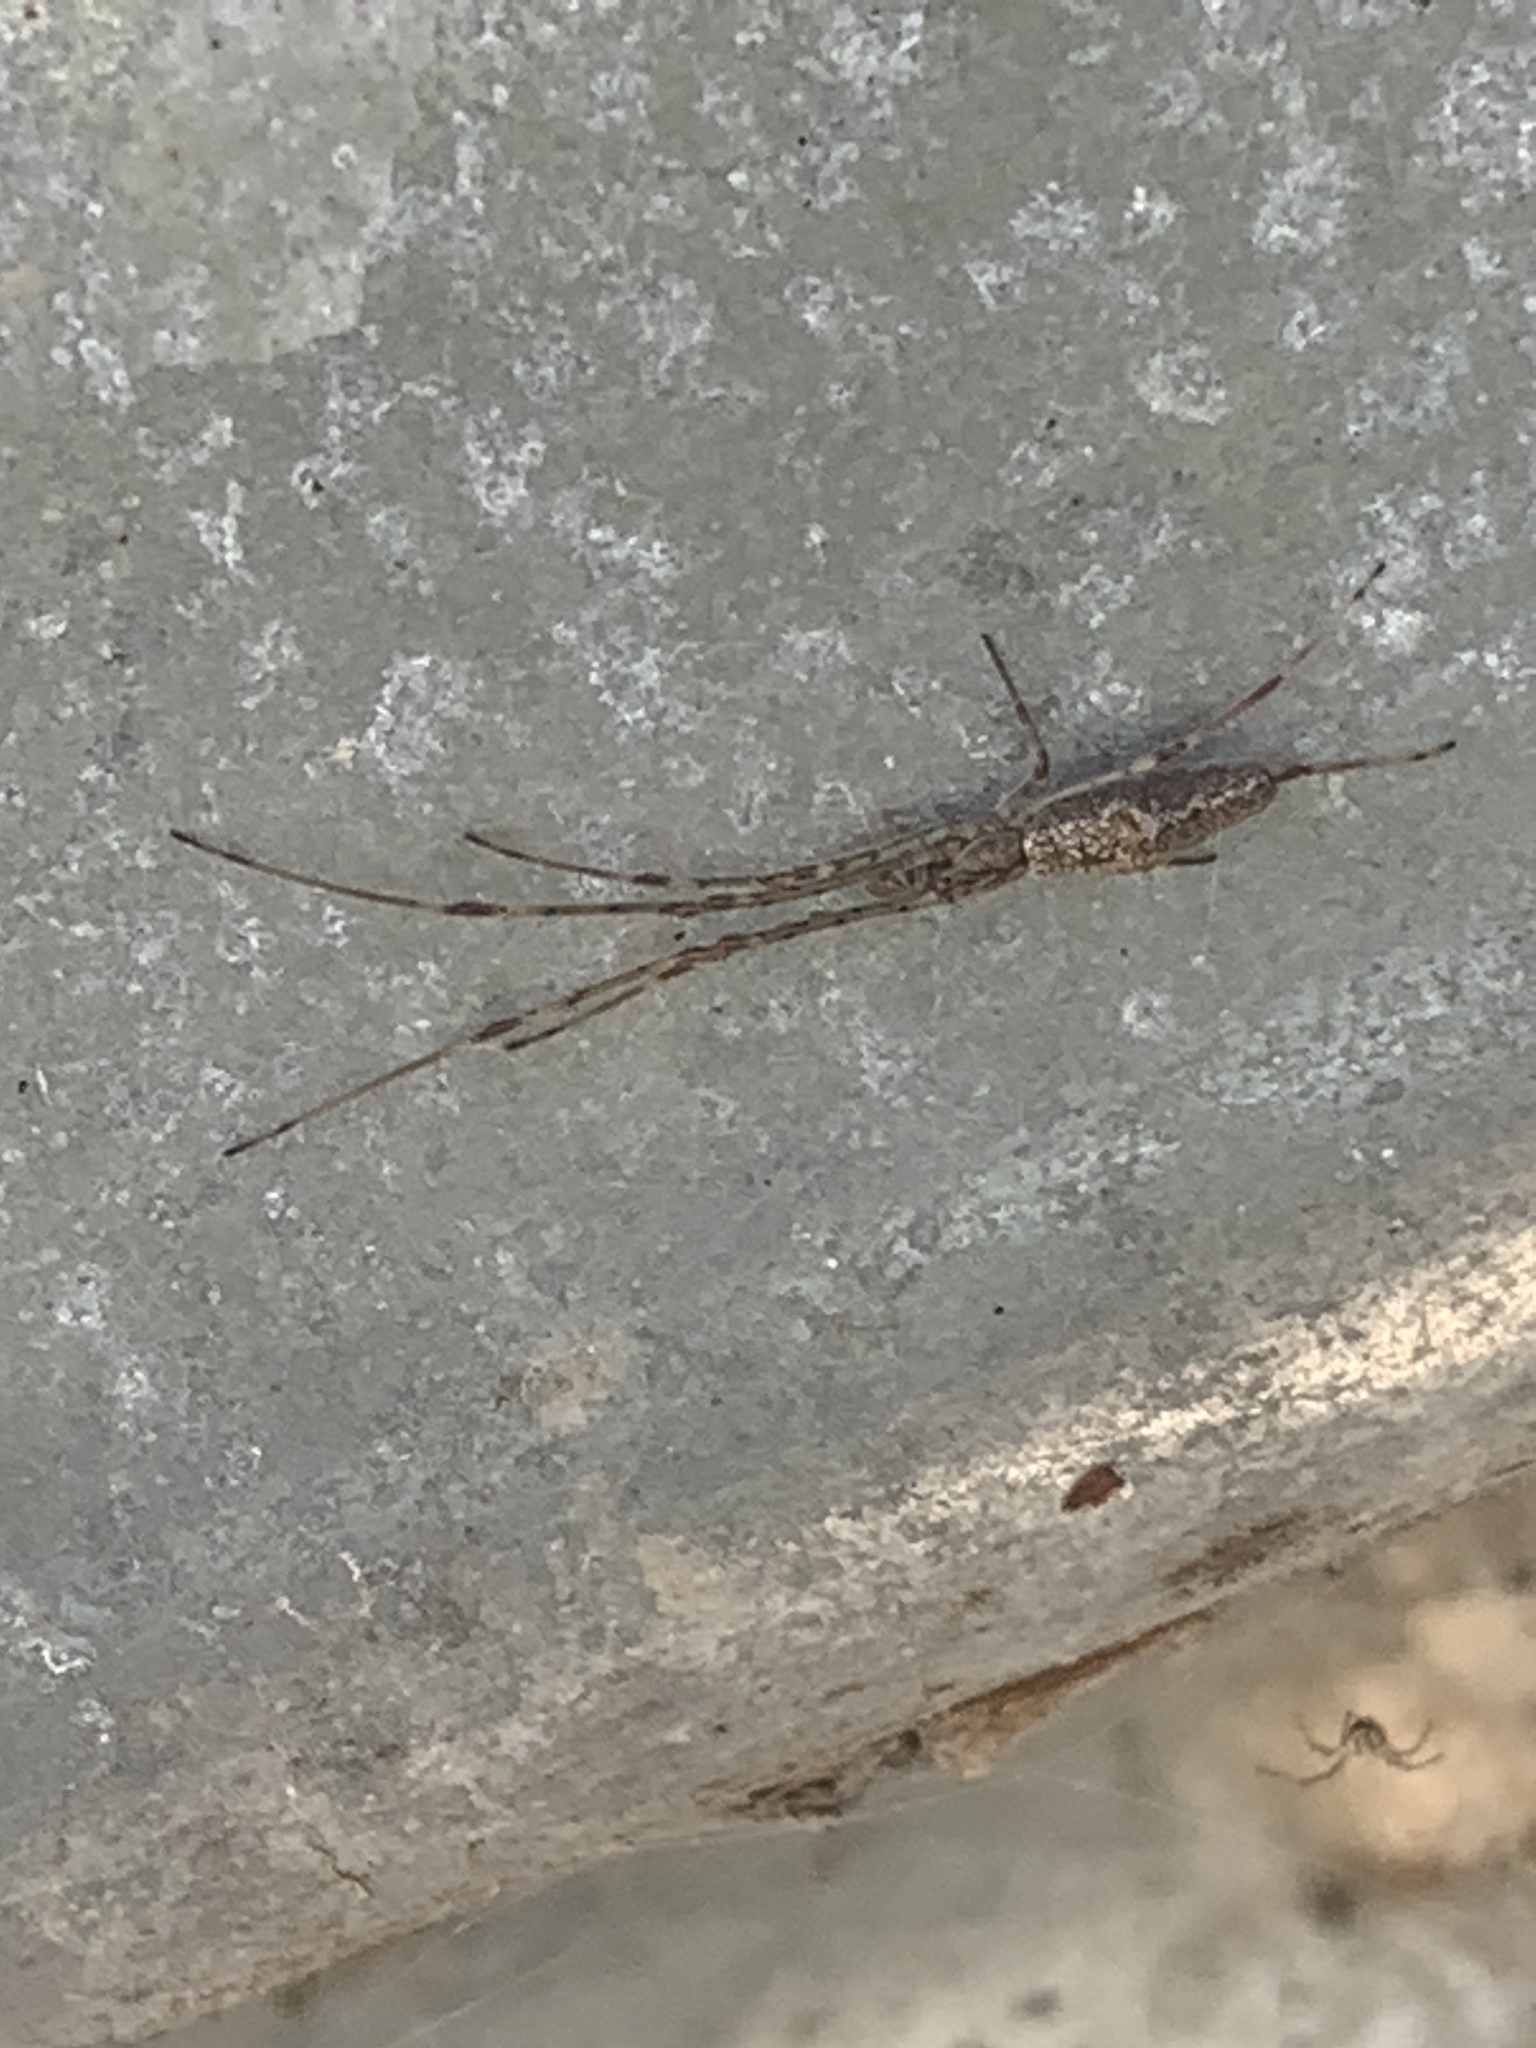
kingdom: Animalia
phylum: Arthropoda
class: Arachnida
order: Araneae
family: Tetragnathidae
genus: Tetragnatha
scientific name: Tetragnatha
